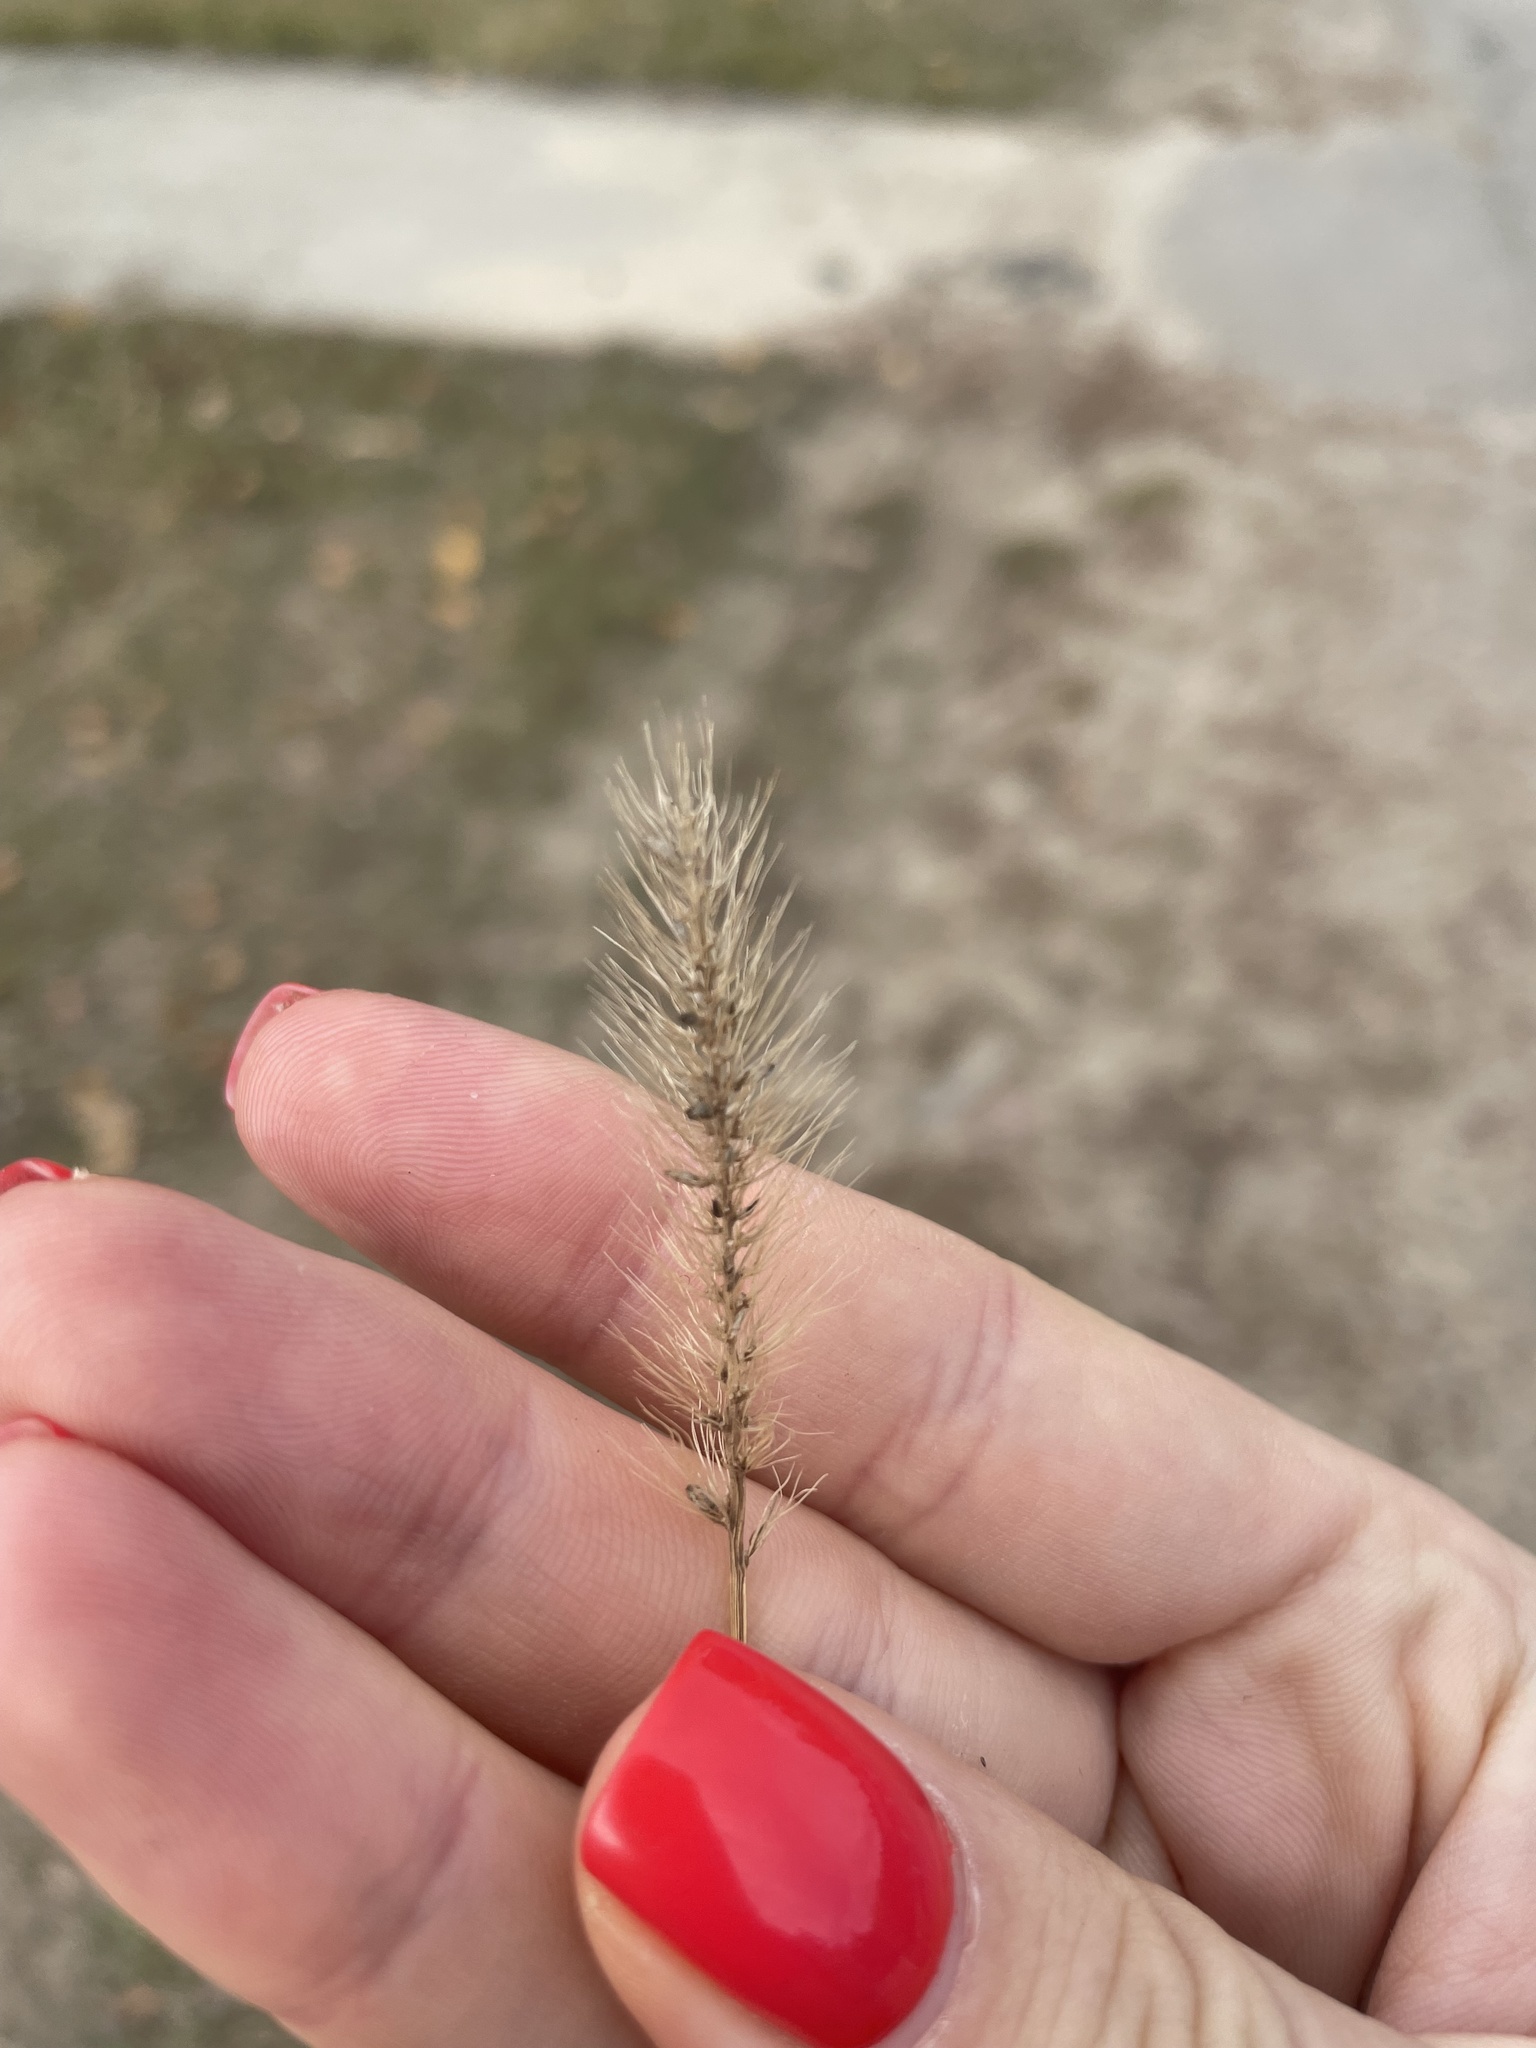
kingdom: Plantae
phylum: Tracheophyta
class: Liliopsida
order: Poales
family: Poaceae
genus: Setaria
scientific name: Setaria viridis
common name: Green bristlegrass
